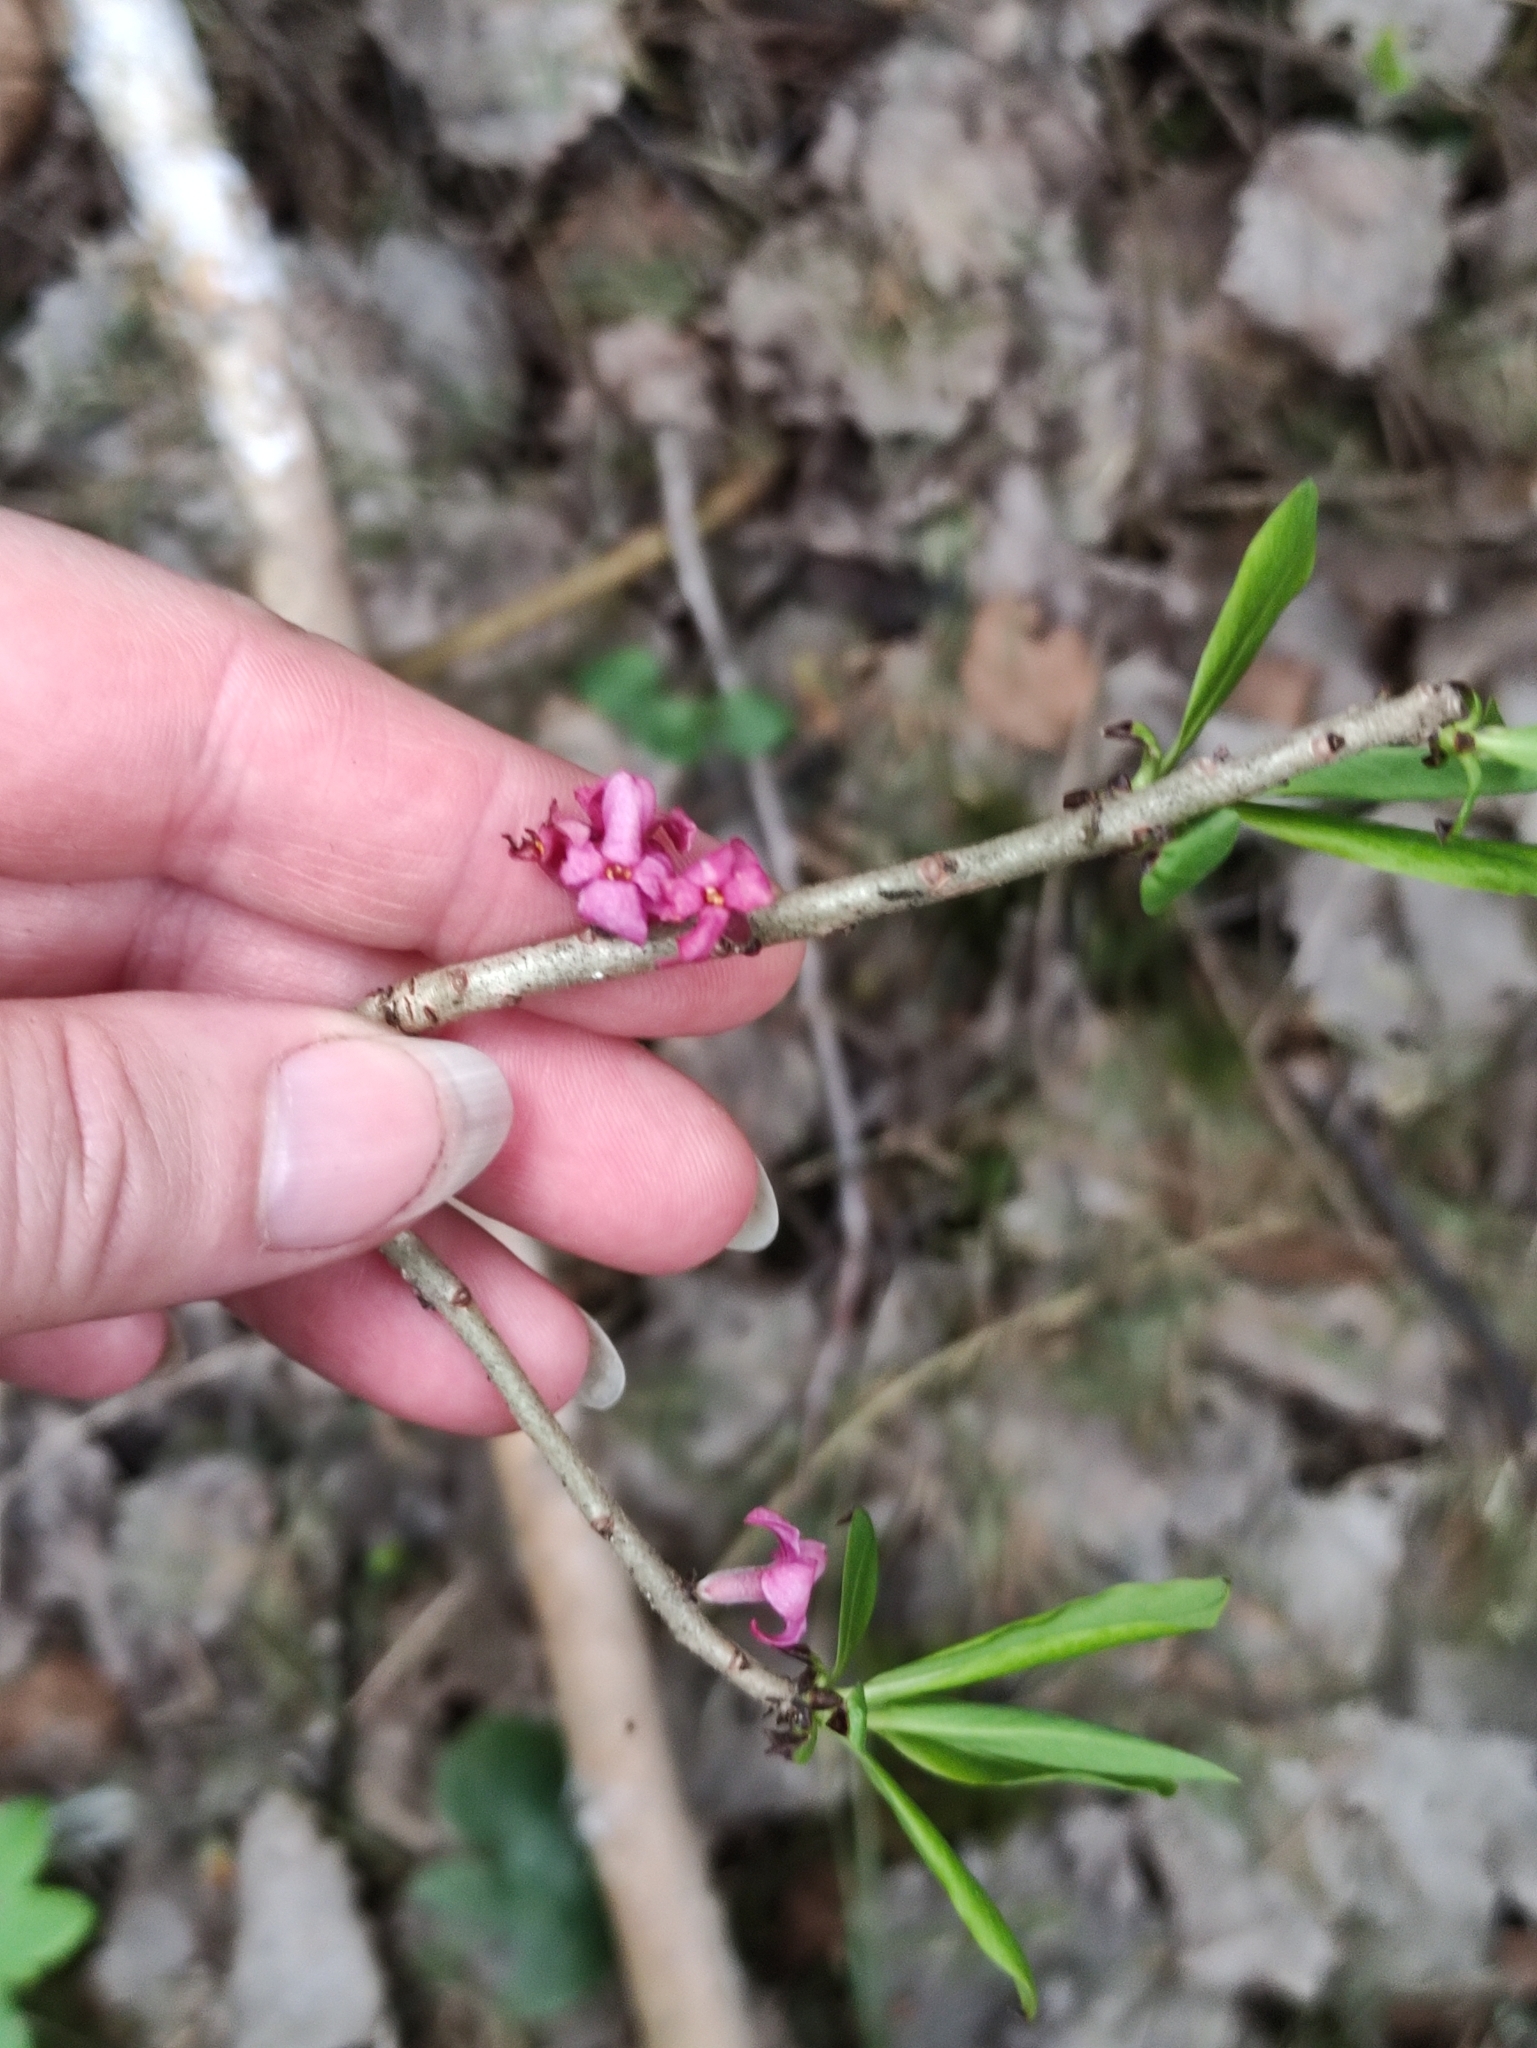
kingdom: Plantae
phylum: Tracheophyta
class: Magnoliopsida
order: Malvales
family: Thymelaeaceae
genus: Daphne
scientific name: Daphne mezereum
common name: Mezereon
